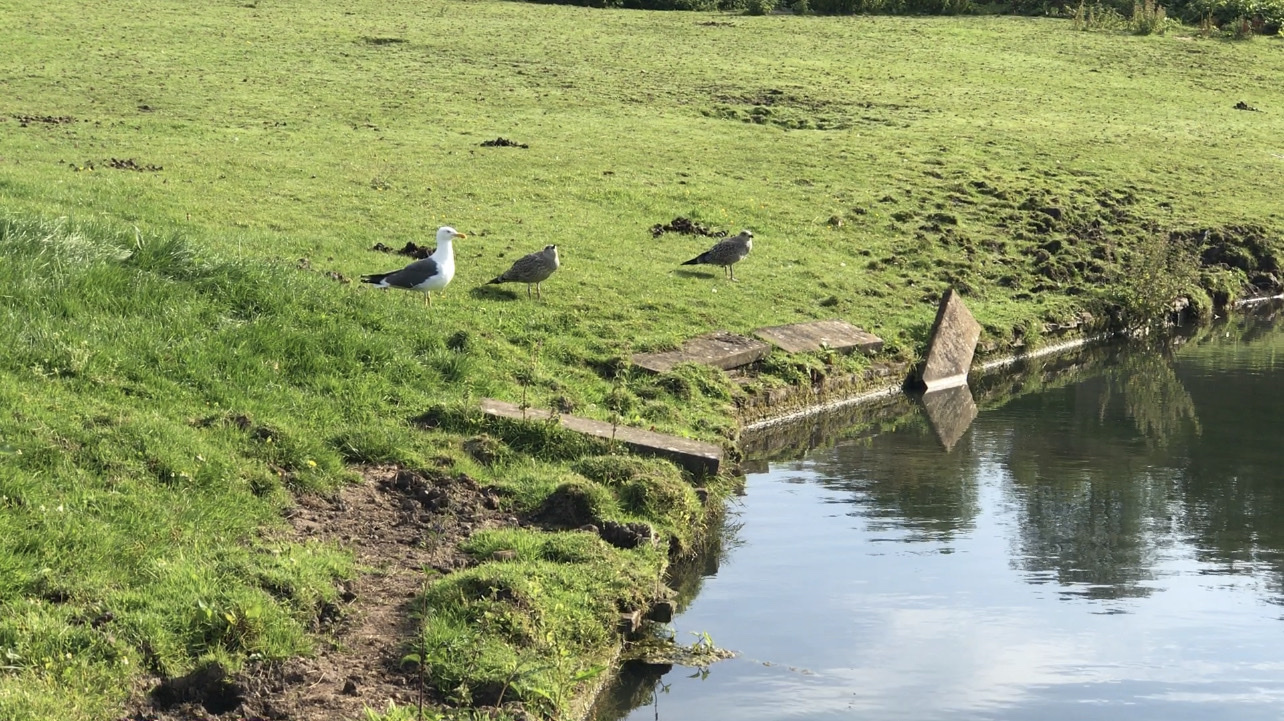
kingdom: Animalia
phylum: Chordata
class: Aves
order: Charadriiformes
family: Laridae
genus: Larus
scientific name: Larus fuscus
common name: Lesser black-backed gull
